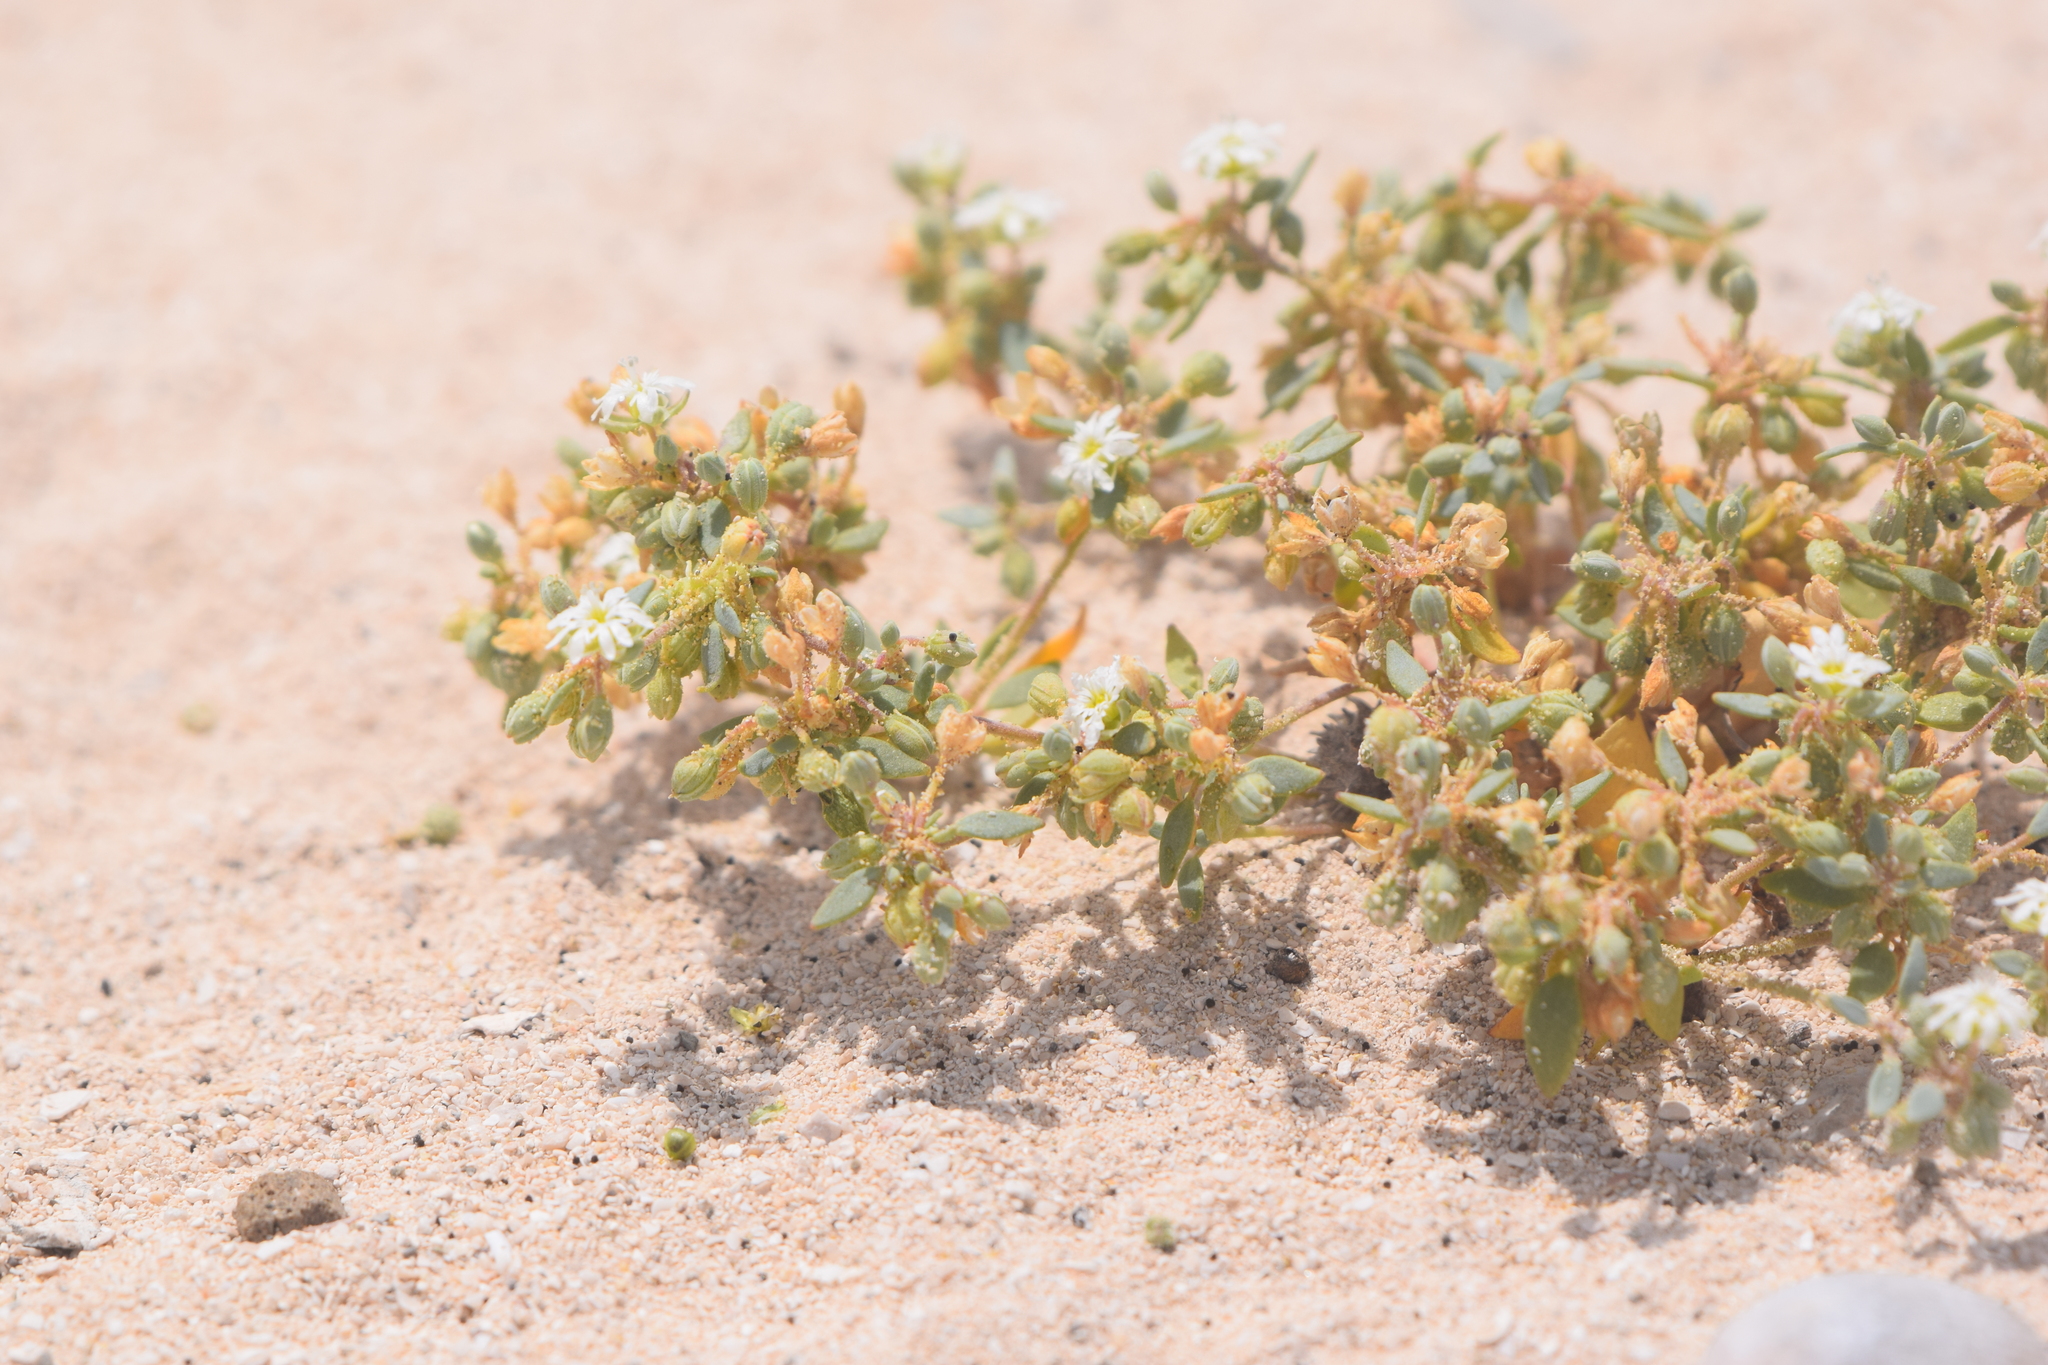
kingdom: Plantae
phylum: Tracheophyta
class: Magnoliopsida
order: Caryophyllales
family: Caryophyllaceae
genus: Drymaria
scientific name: Drymaria holosteoides
